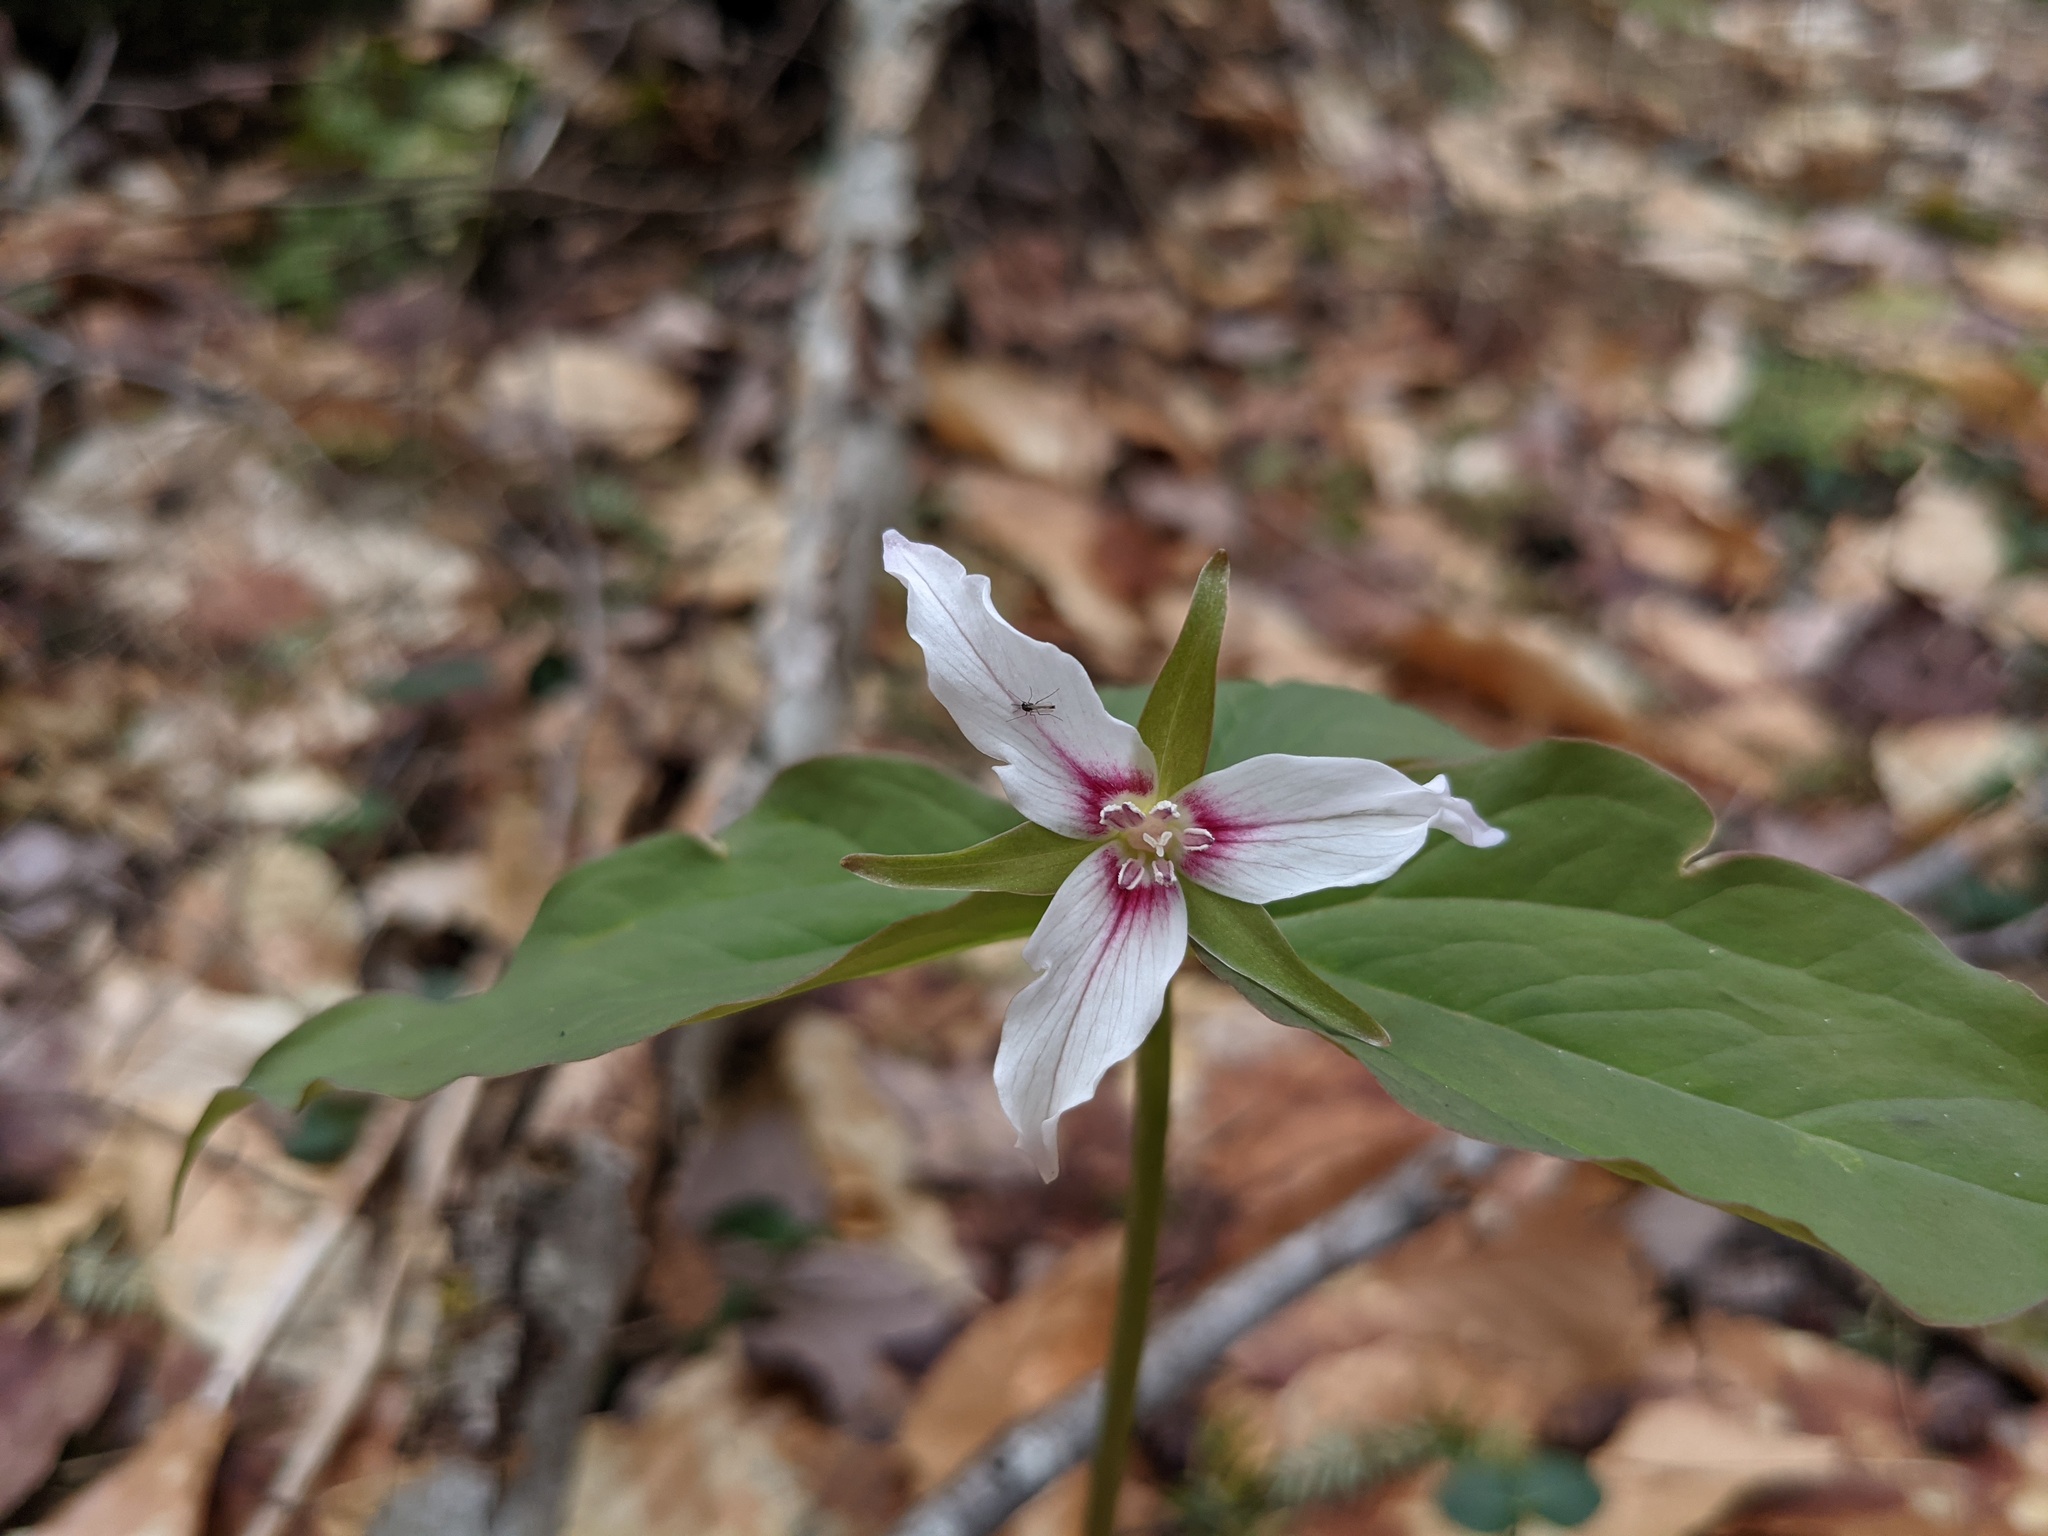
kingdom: Plantae
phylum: Tracheophyta
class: Liliopsida
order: Liliales
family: Melanthiaceae
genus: Trillium
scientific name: Trillium undulatum
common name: Paint trillium
